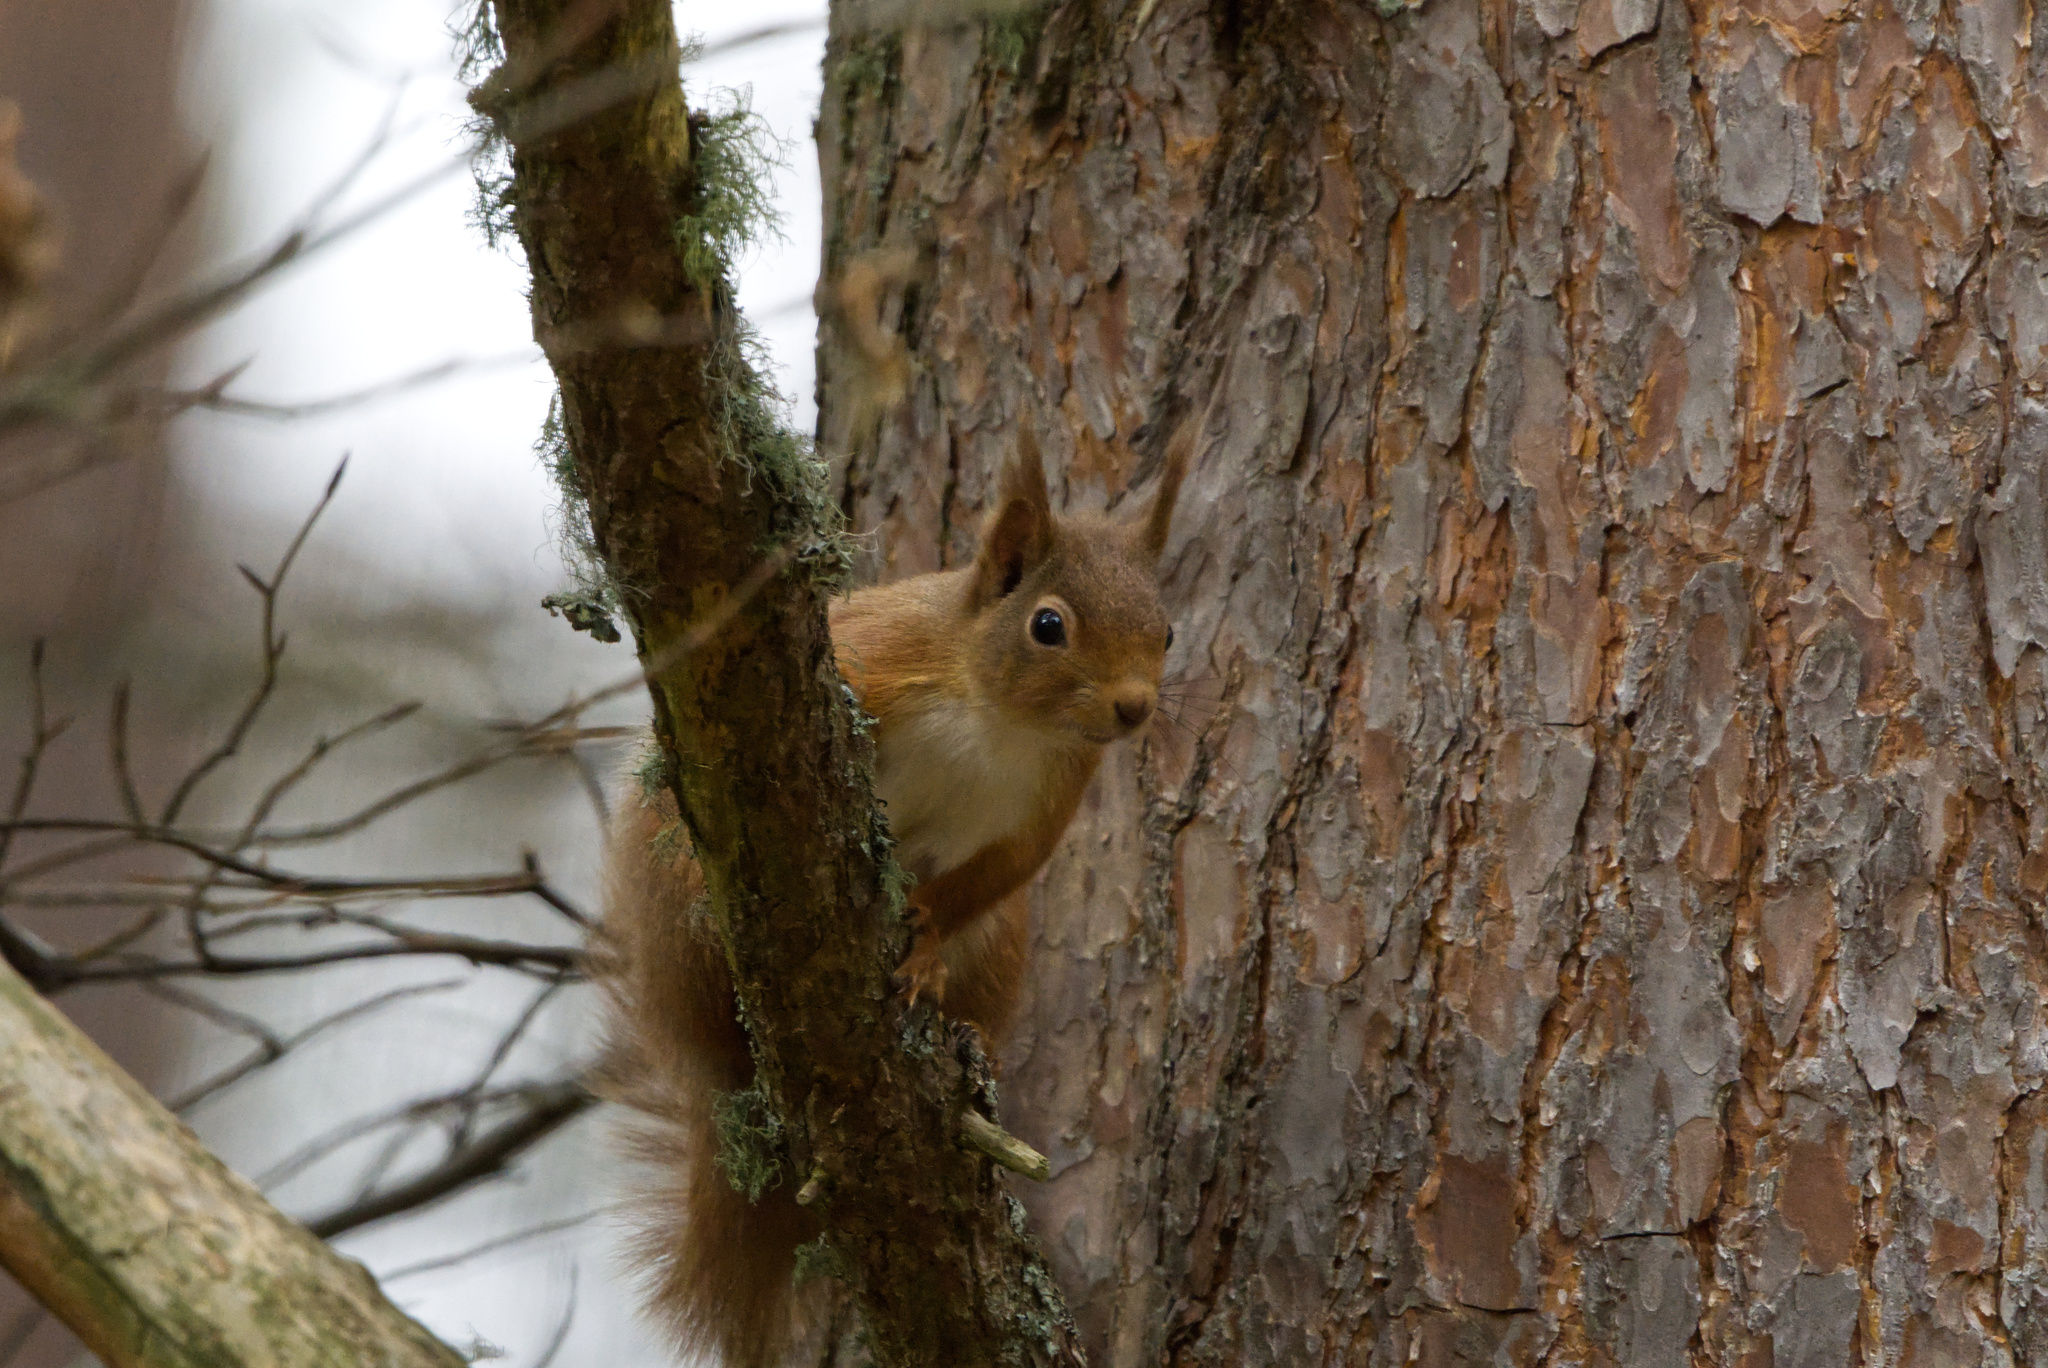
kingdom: Animalia
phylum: Chordata
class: Mammalia
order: Rodentia
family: Sciuridae
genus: Sciurus
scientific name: Sciurus vulgaris
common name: Eurasian red squirrel
